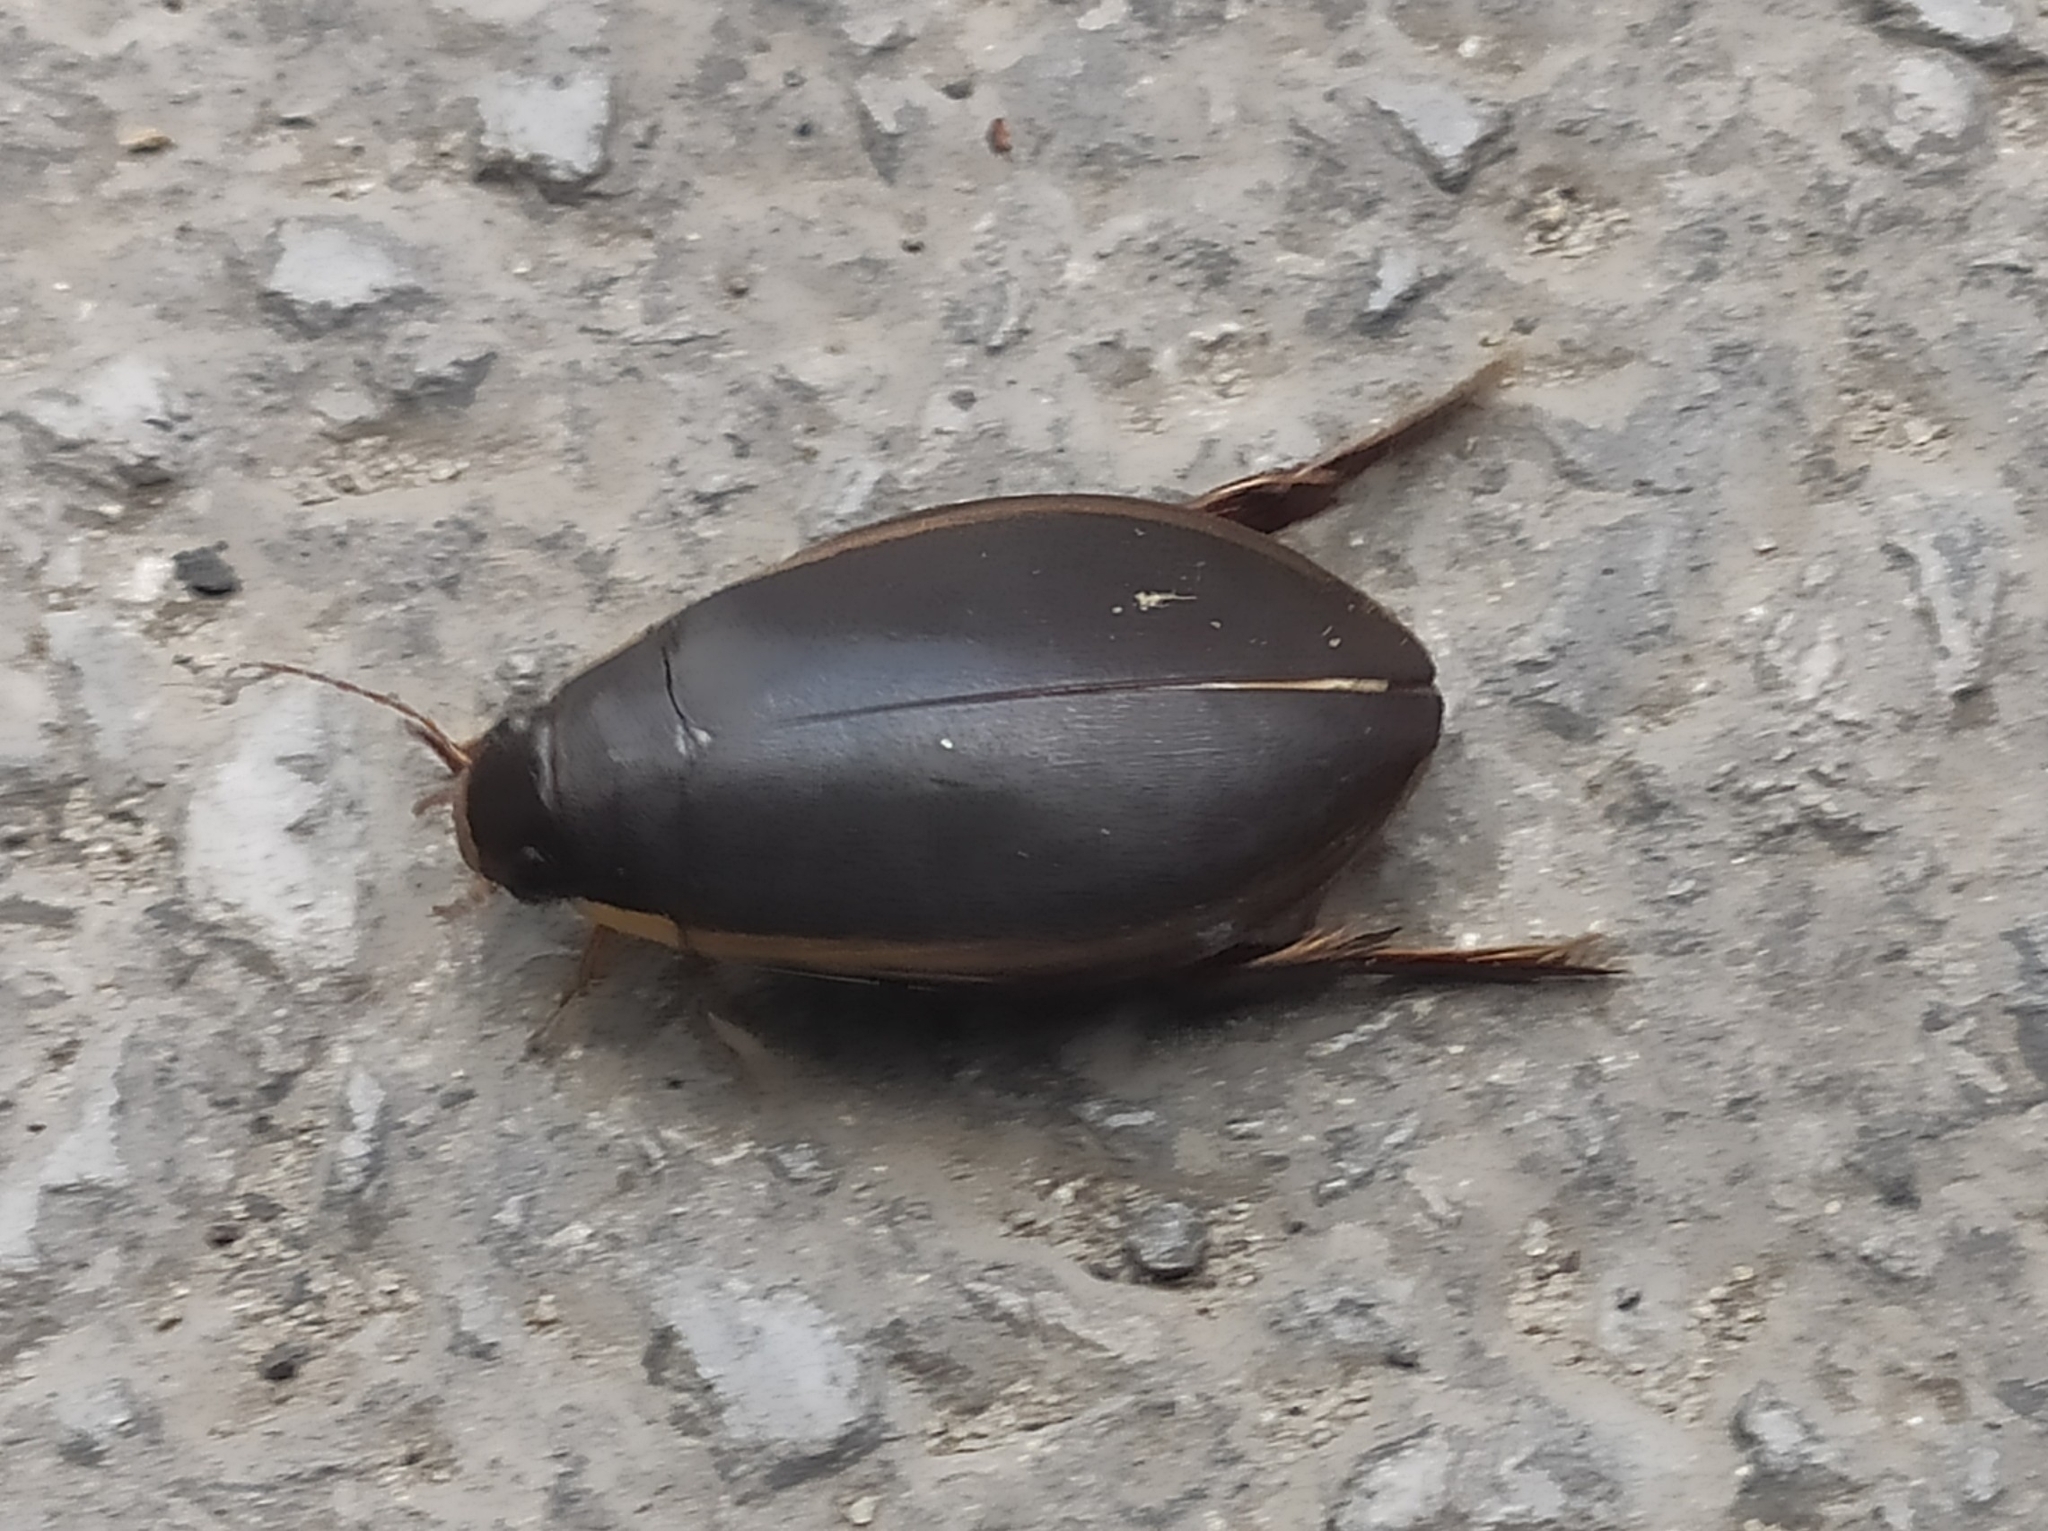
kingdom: Animalia
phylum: Arthropoda
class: Insecta
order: Coleoptera
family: Dytiscidae
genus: Cybister
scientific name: Cybister lateralimarginalis
